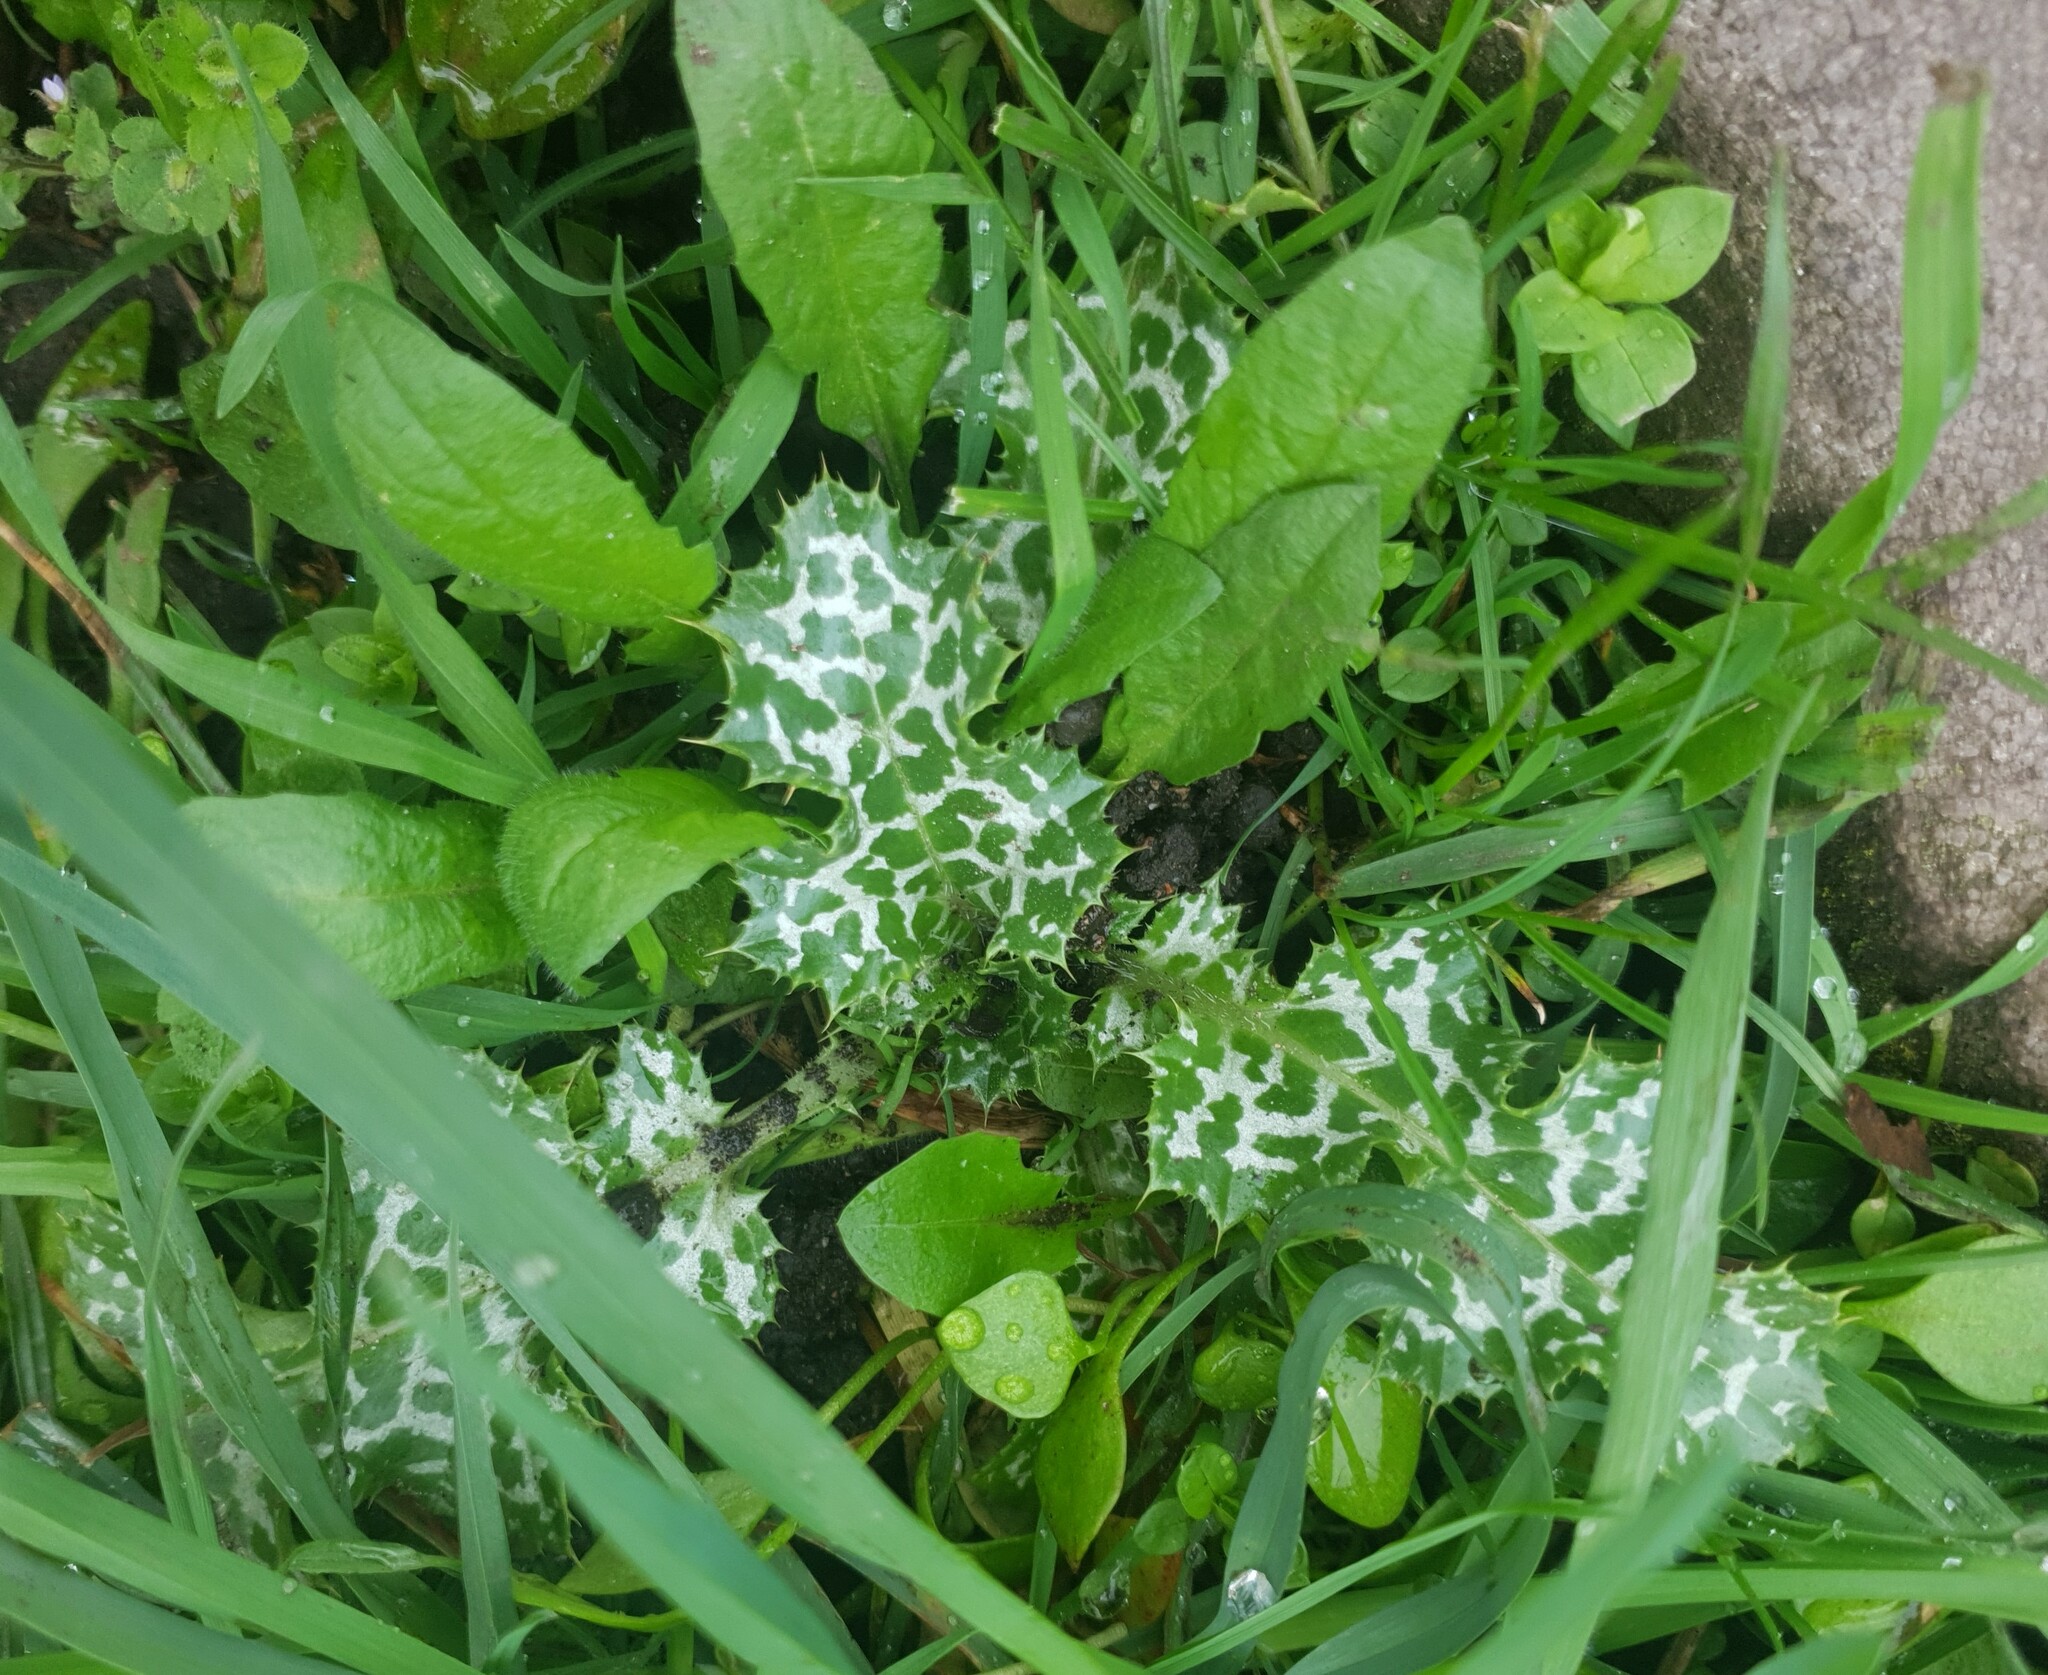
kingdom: Plantae
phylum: Tracheophyta
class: Magnoliopsida
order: Asterales
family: Asteraceae
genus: Silybum
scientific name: Silybum marianum
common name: Milk thistle
